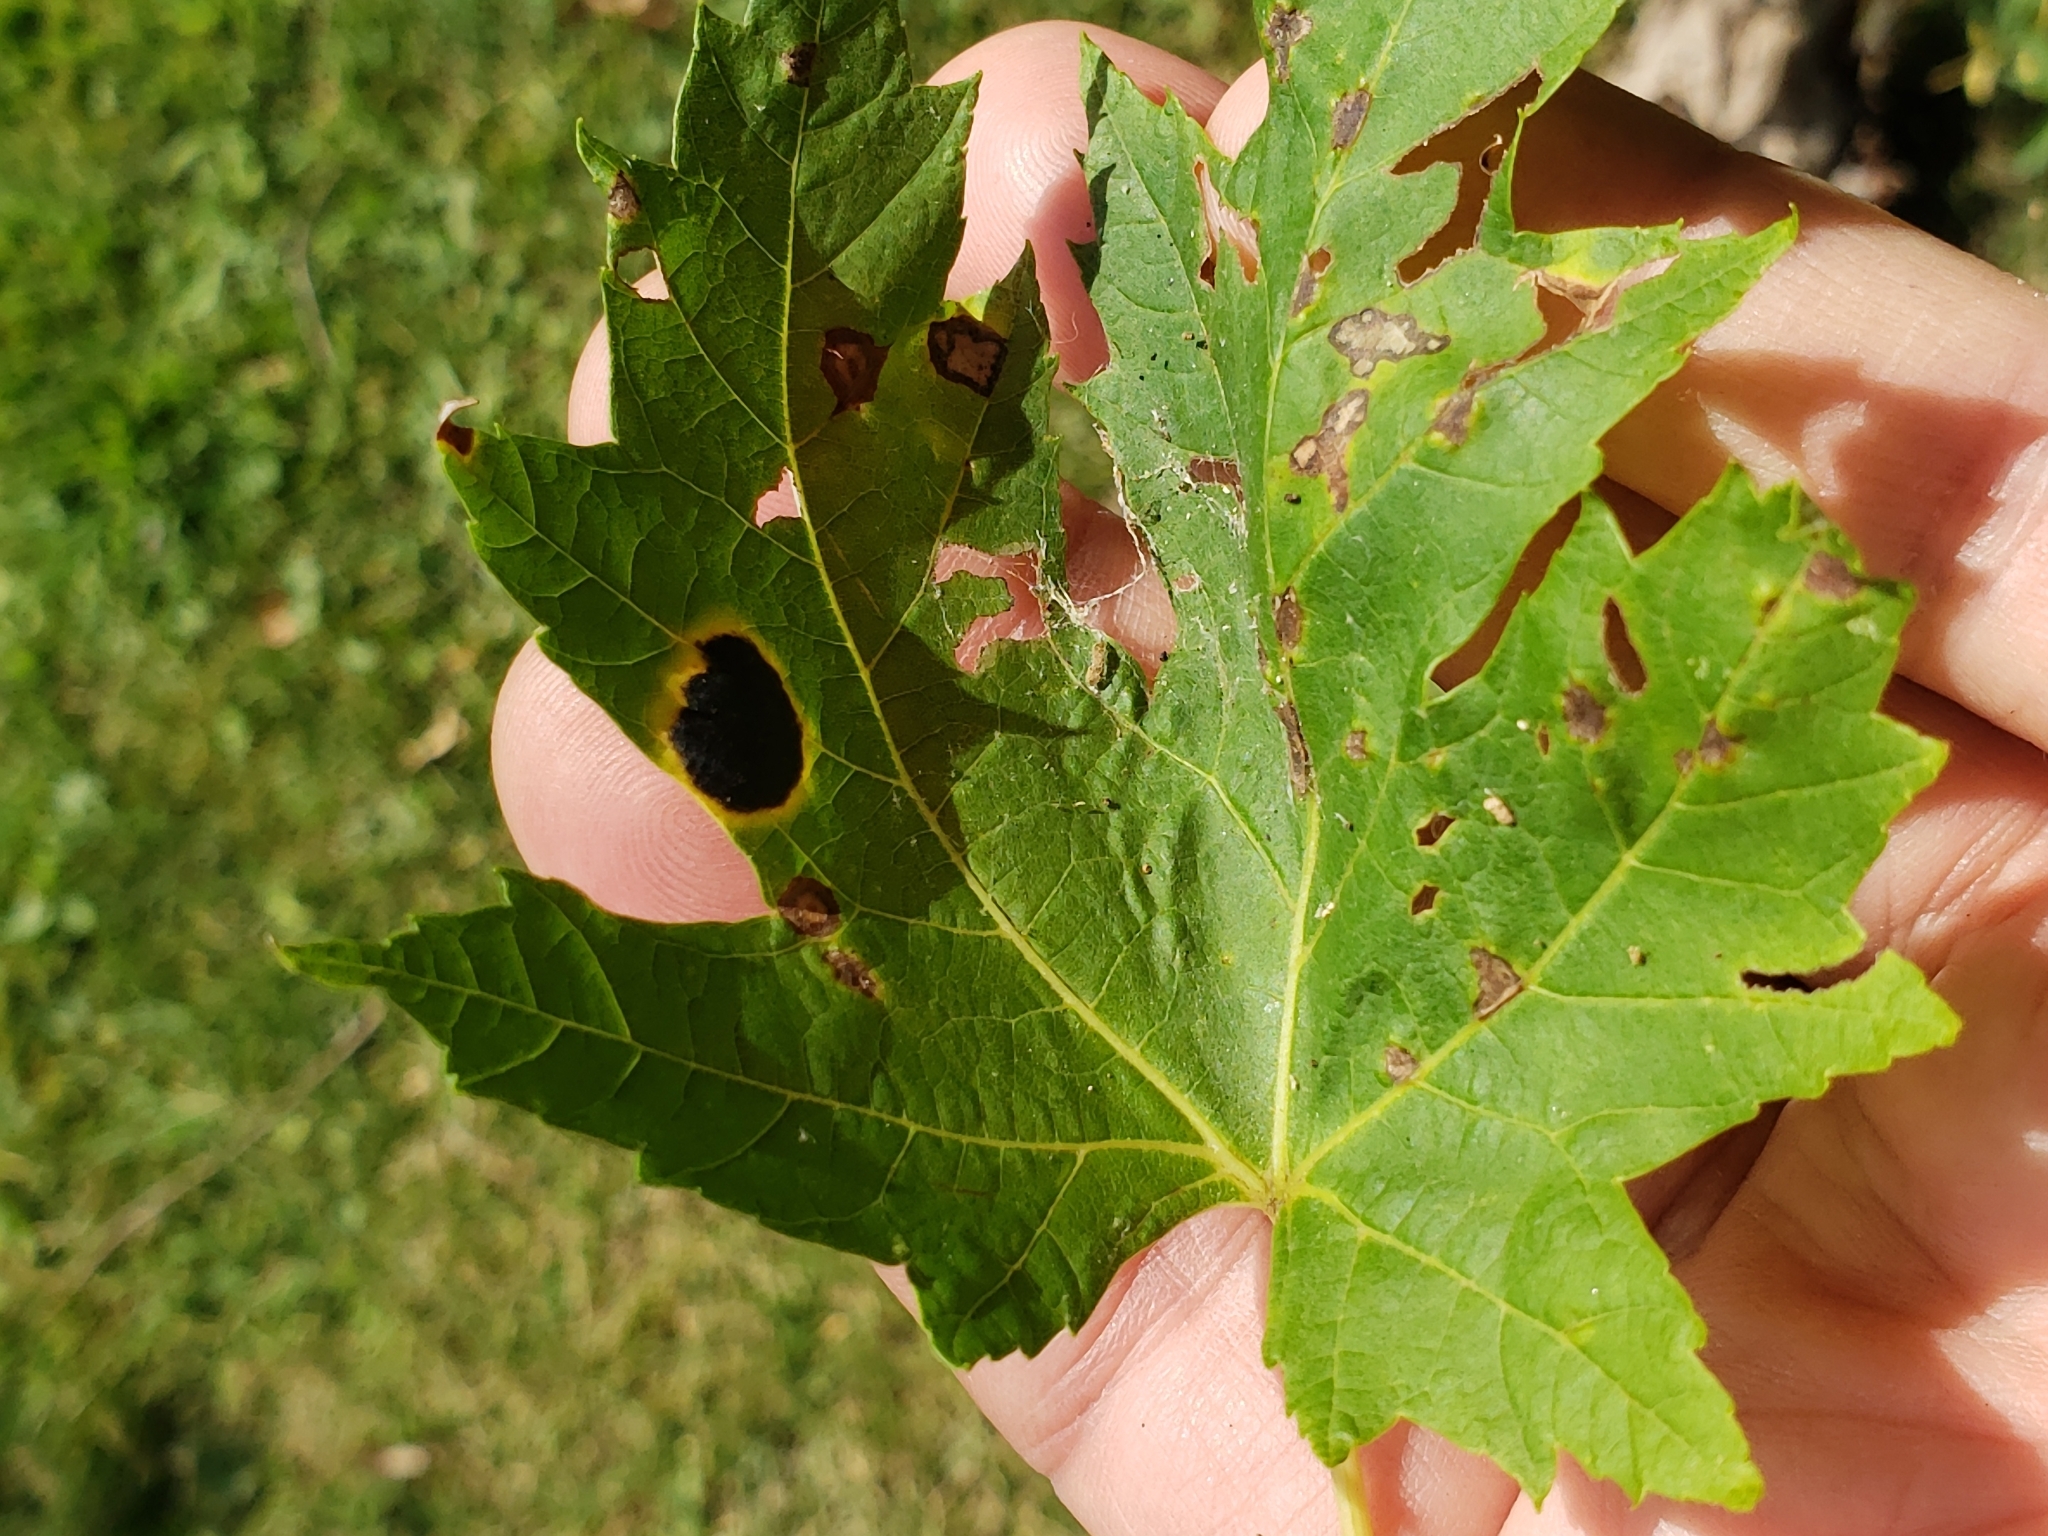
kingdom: Fungi
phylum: Ascomycota
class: Leotiomycetes
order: Rhytismatales
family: Rhytismataceae
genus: Rhytisma
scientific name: Rhytisma americanum
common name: American tar spot
